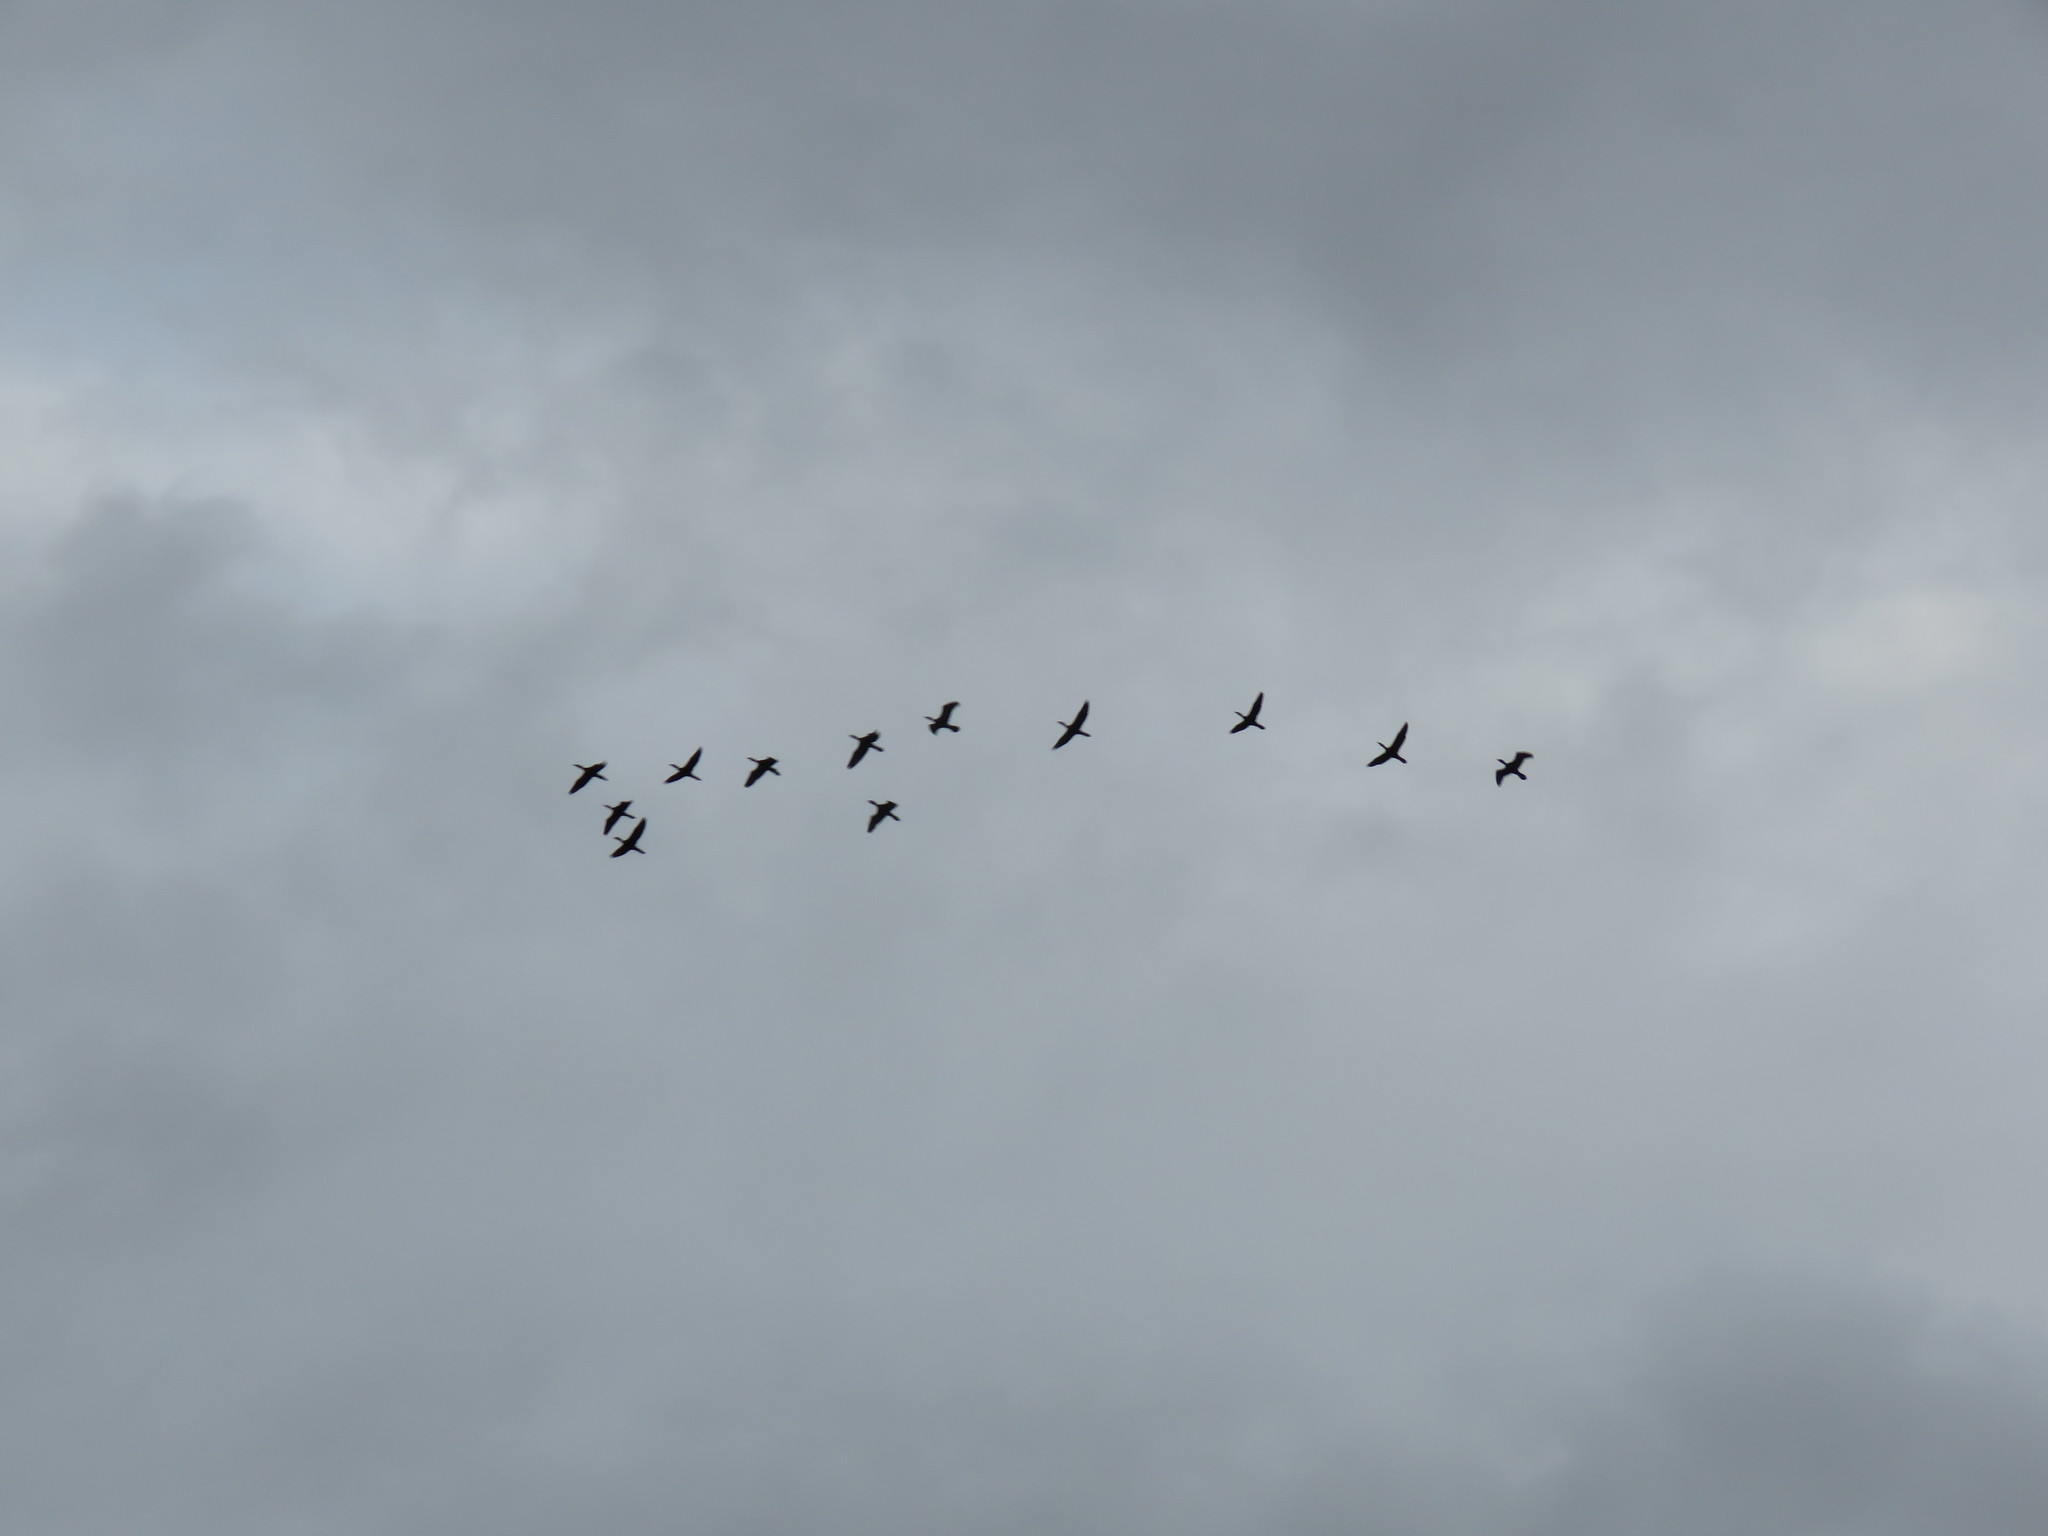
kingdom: Animalia
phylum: Chordata
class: Aves
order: Suliformes
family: Phalacrocoracidae
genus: Phalacrocorax
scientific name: Phalacrocorax brasilianus
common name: Neotropic cormorant
